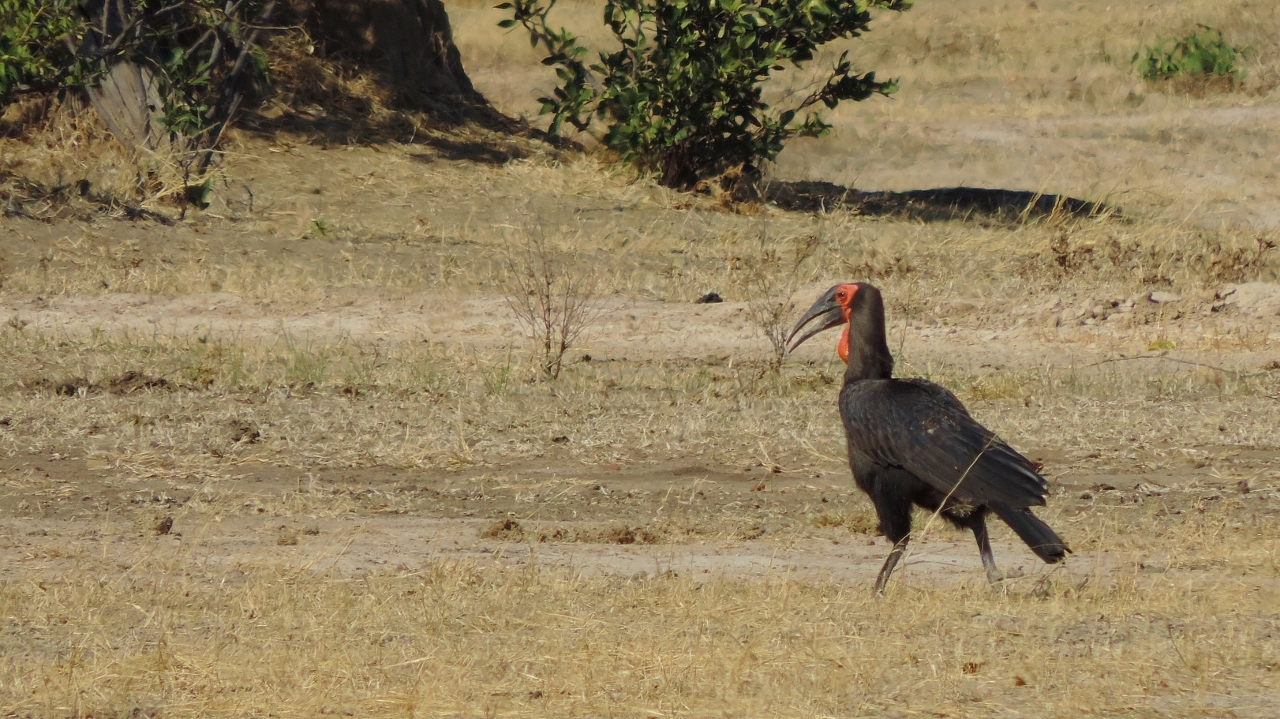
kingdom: Animalia
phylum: Chordata
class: Aves
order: Bucerotiformes
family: Bucorvidae
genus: Bucorvus
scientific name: Bucorvus leadbeateri
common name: Southern ground-hornbill
